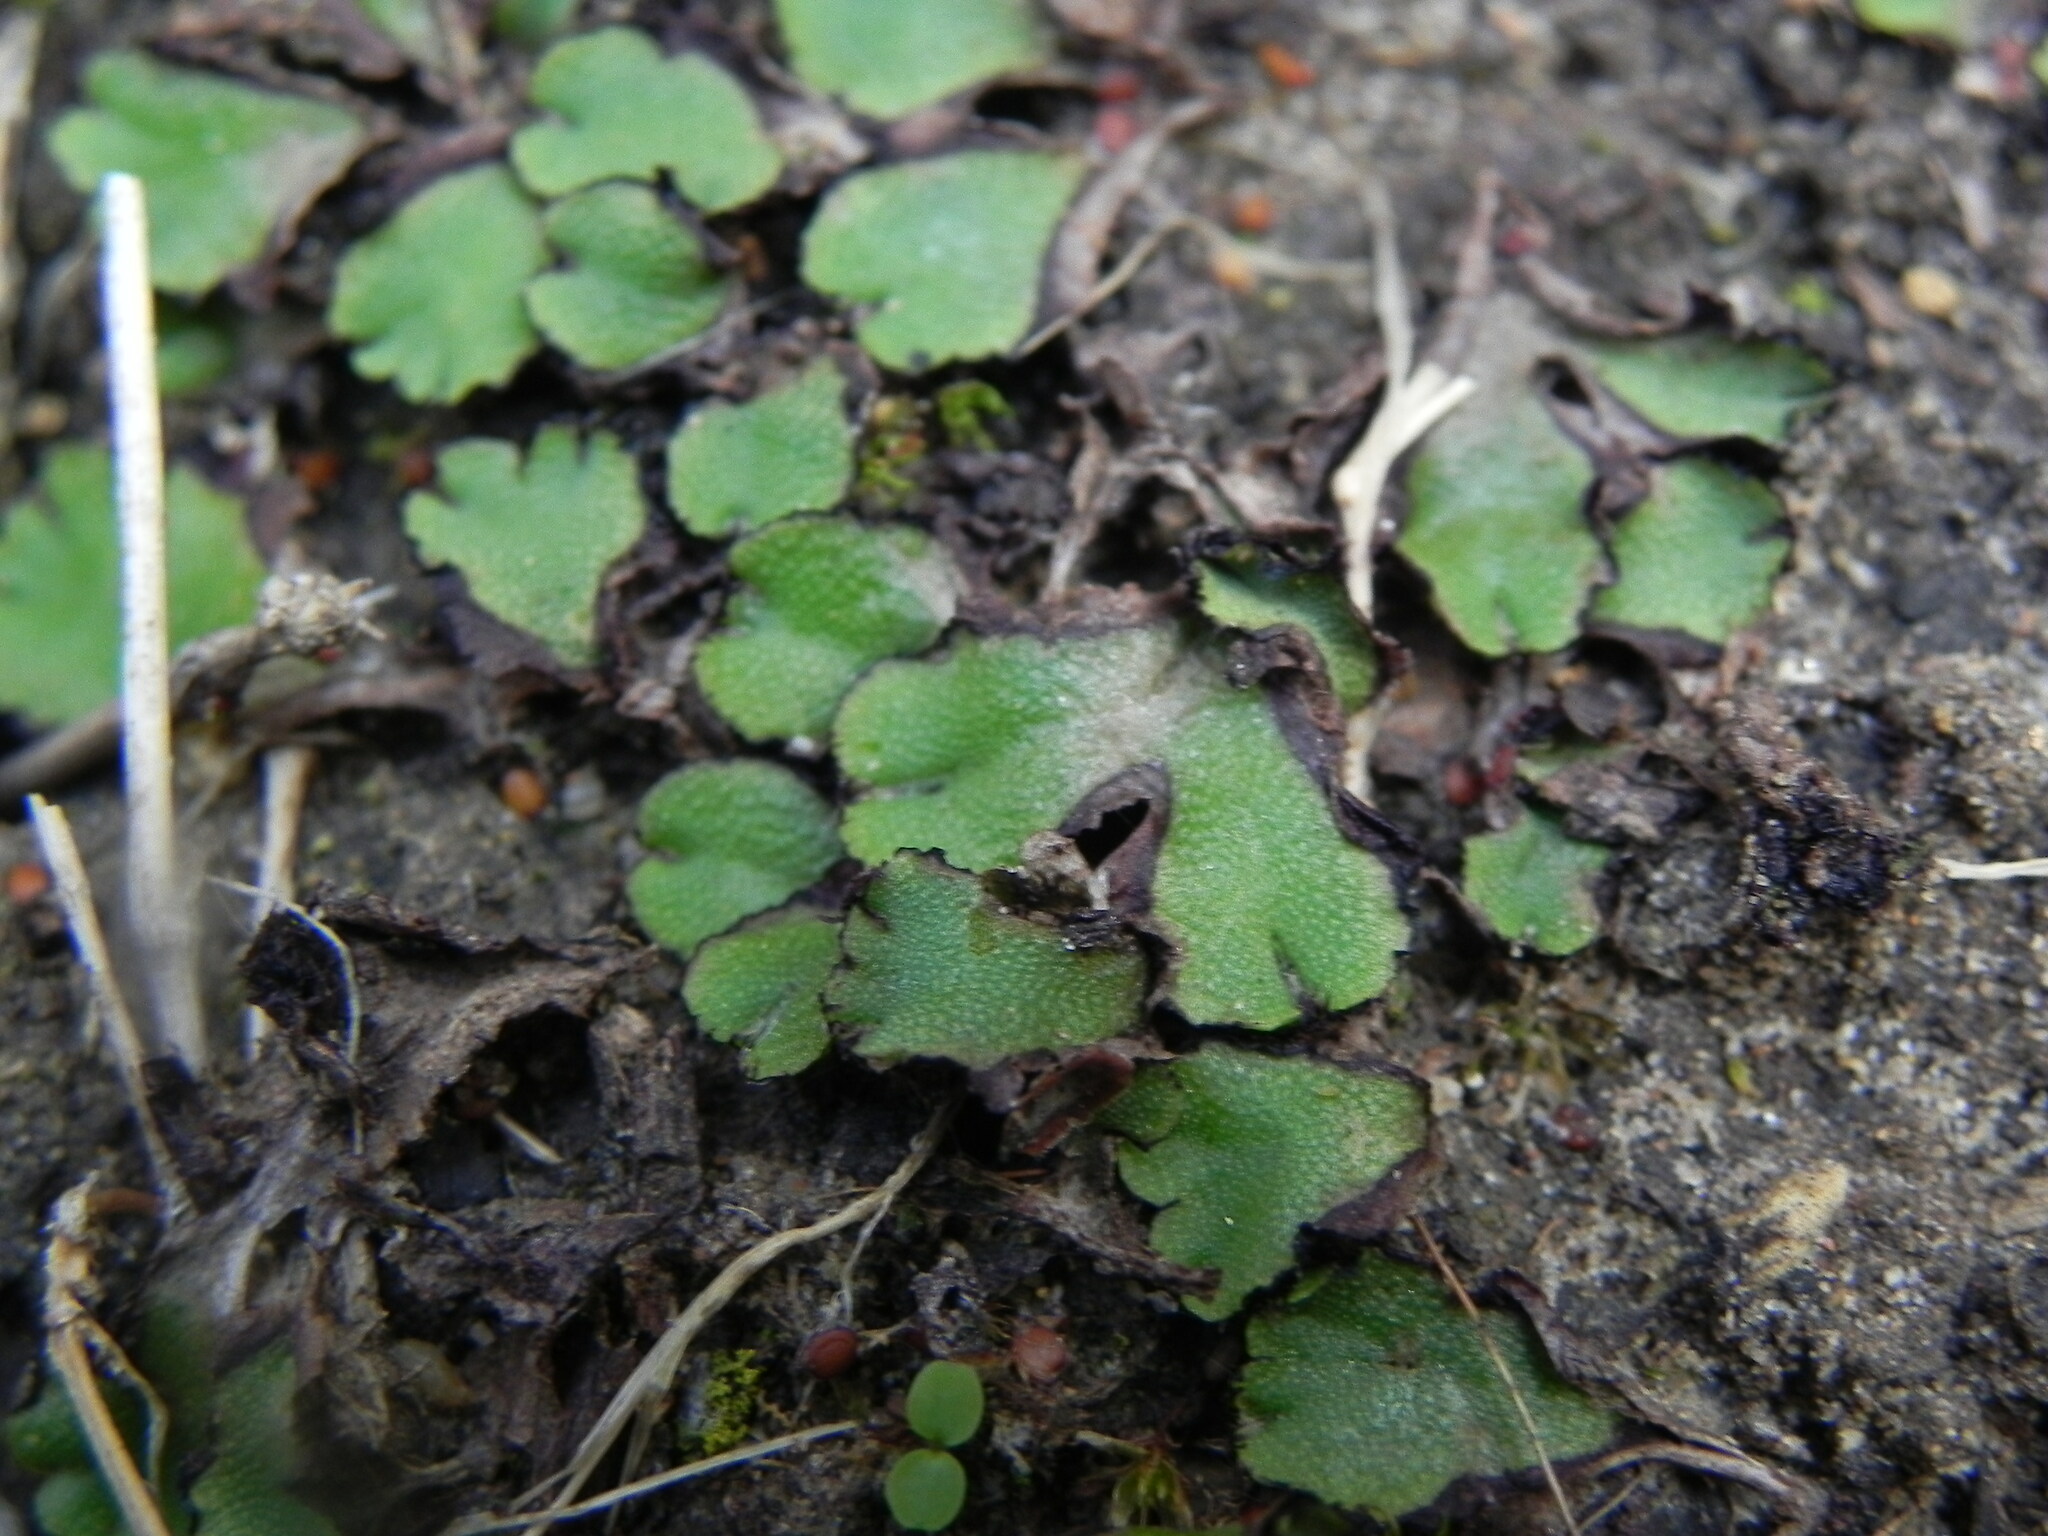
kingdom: Plantae
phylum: Marchantiophyta
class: Marchantiopsida
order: Marchantiales
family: Aytoniaceae
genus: Asterella
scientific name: Asterella californica
